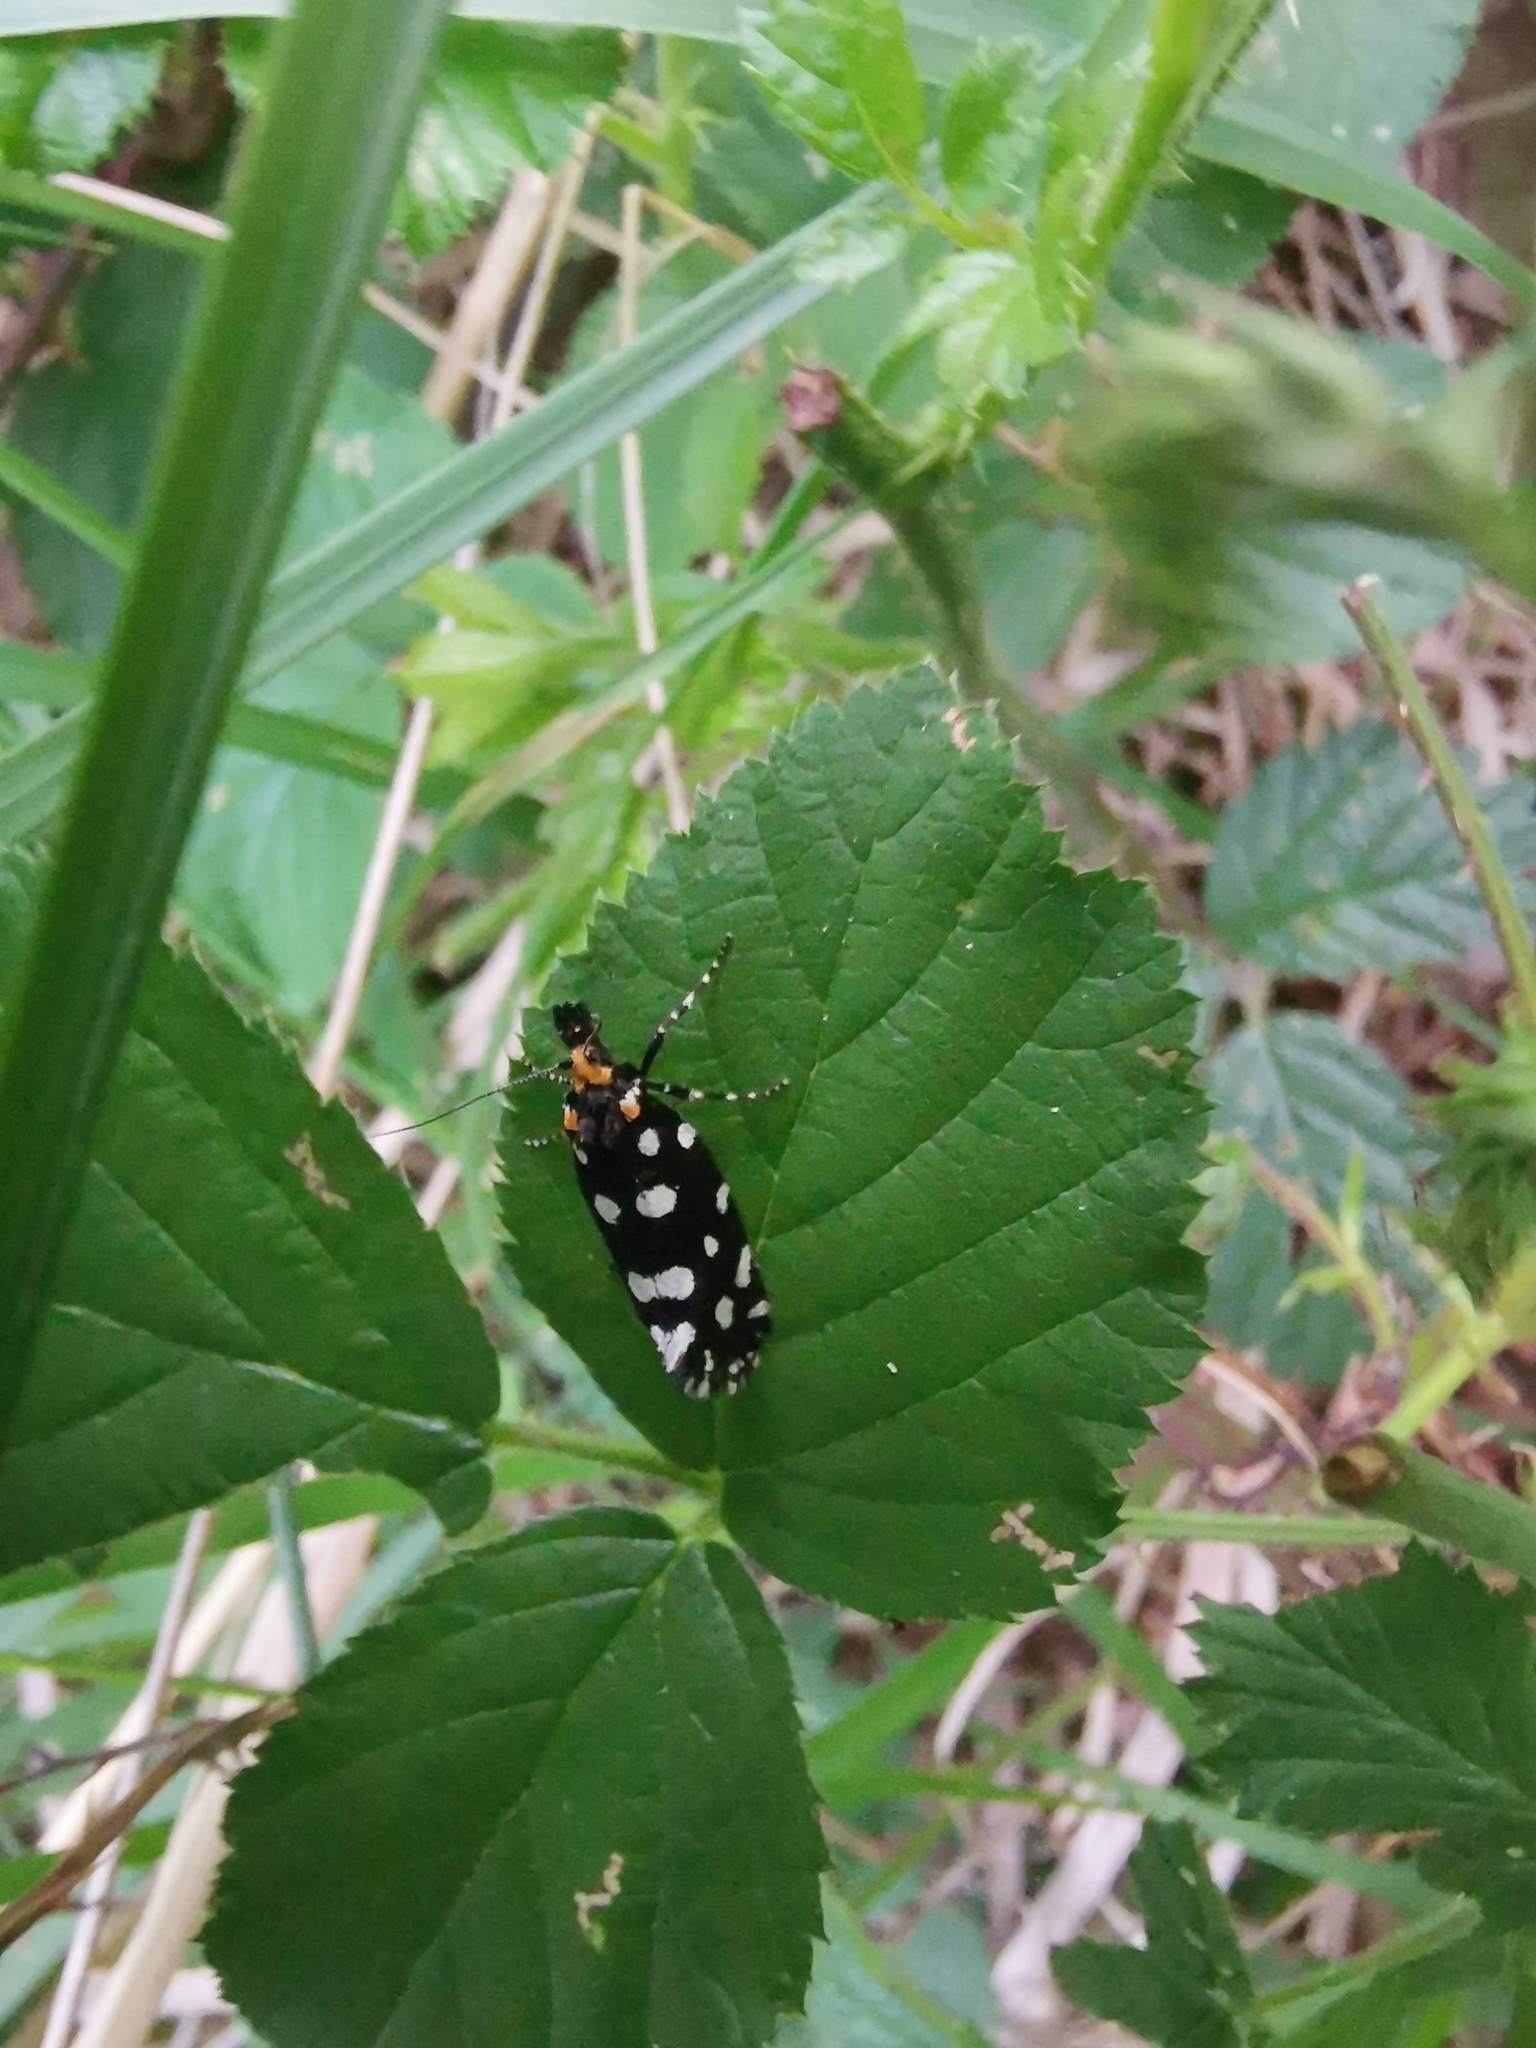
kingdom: Animalia
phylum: Arthropoda
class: Insecta
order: Lepidoptera
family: Tineidae
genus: Euplocamus
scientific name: Euplocamus anthracinalis
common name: Black clothes
